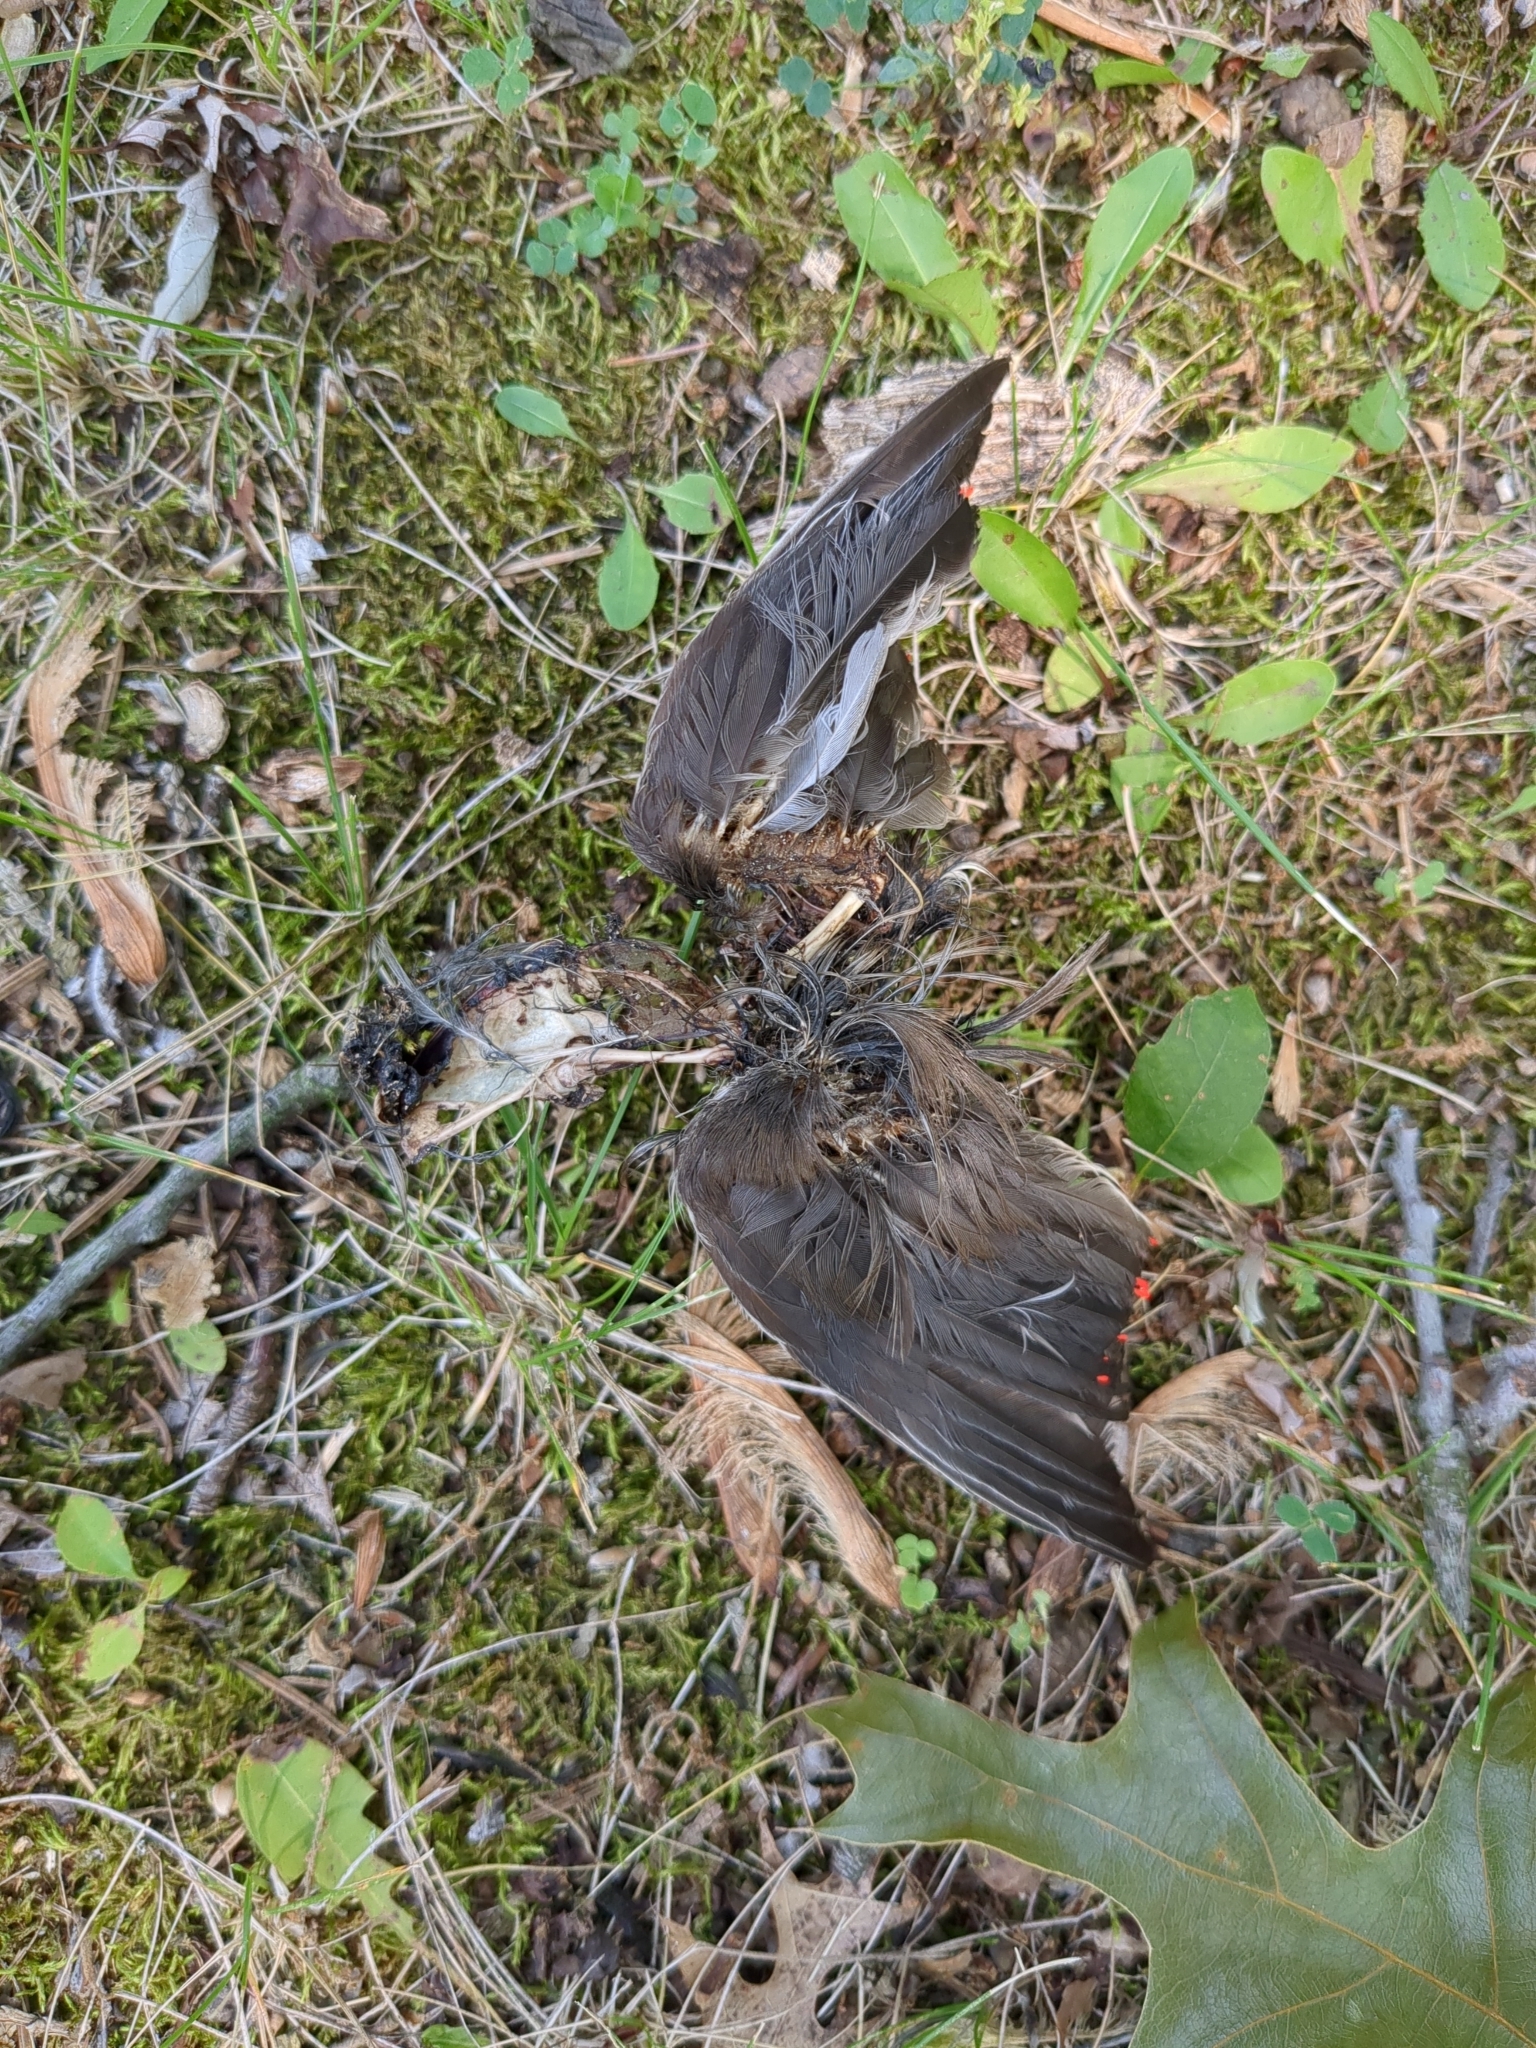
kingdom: Animalia
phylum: Chordata
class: Aves
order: Passeriformes
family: Bombycillidae
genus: Bombycilla
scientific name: Bombycilla cedrorum
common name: Cedar waxwing
